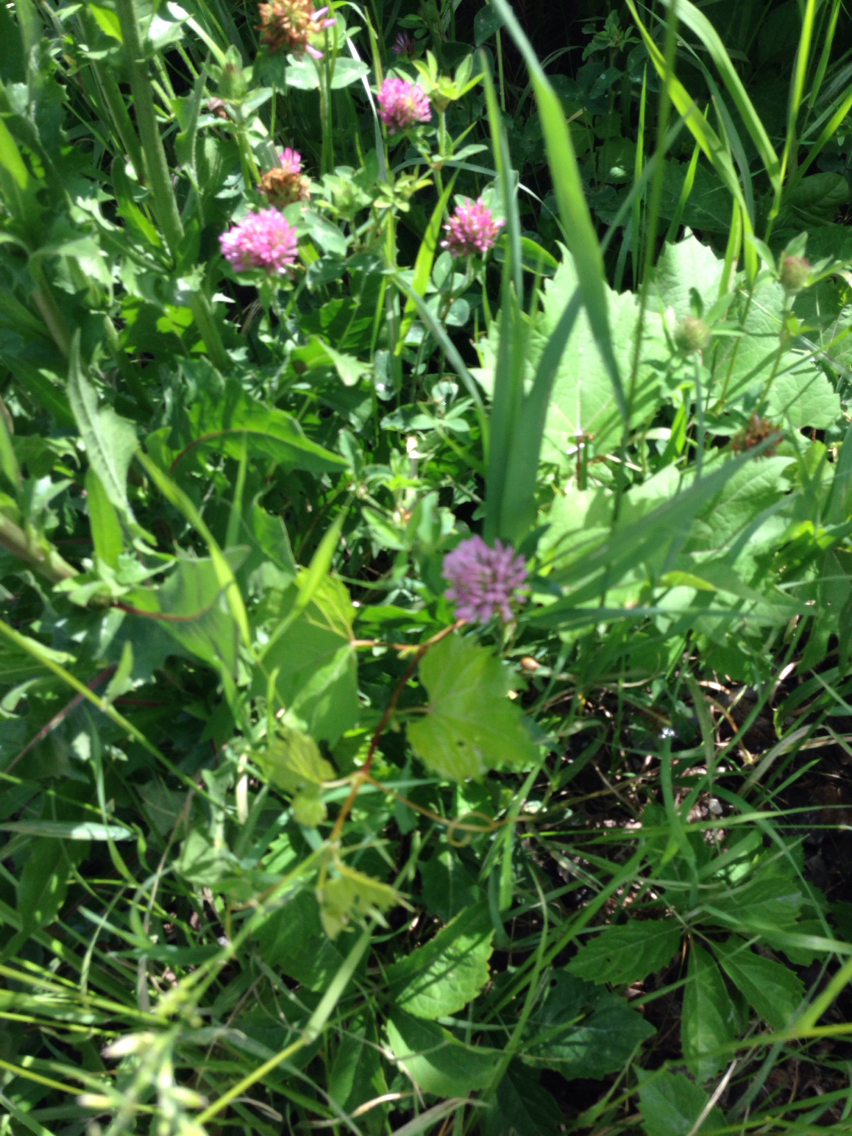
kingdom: Plantae
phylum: Tracheophyta
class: Magnoliopsida
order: Fabales
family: Fabaceae
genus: Trifolium
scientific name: Trifolium pratense
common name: Red clover
